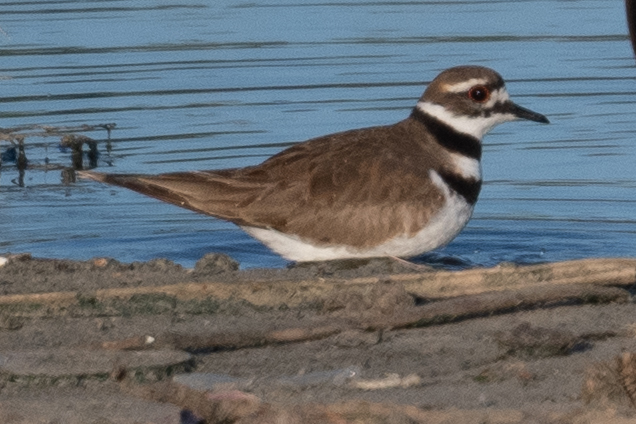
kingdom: Animalia
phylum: Chordata
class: Aves
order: Charadriiformes
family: Charadriidae
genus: Charadrius
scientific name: Charadrius vociferus
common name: Killdeer
